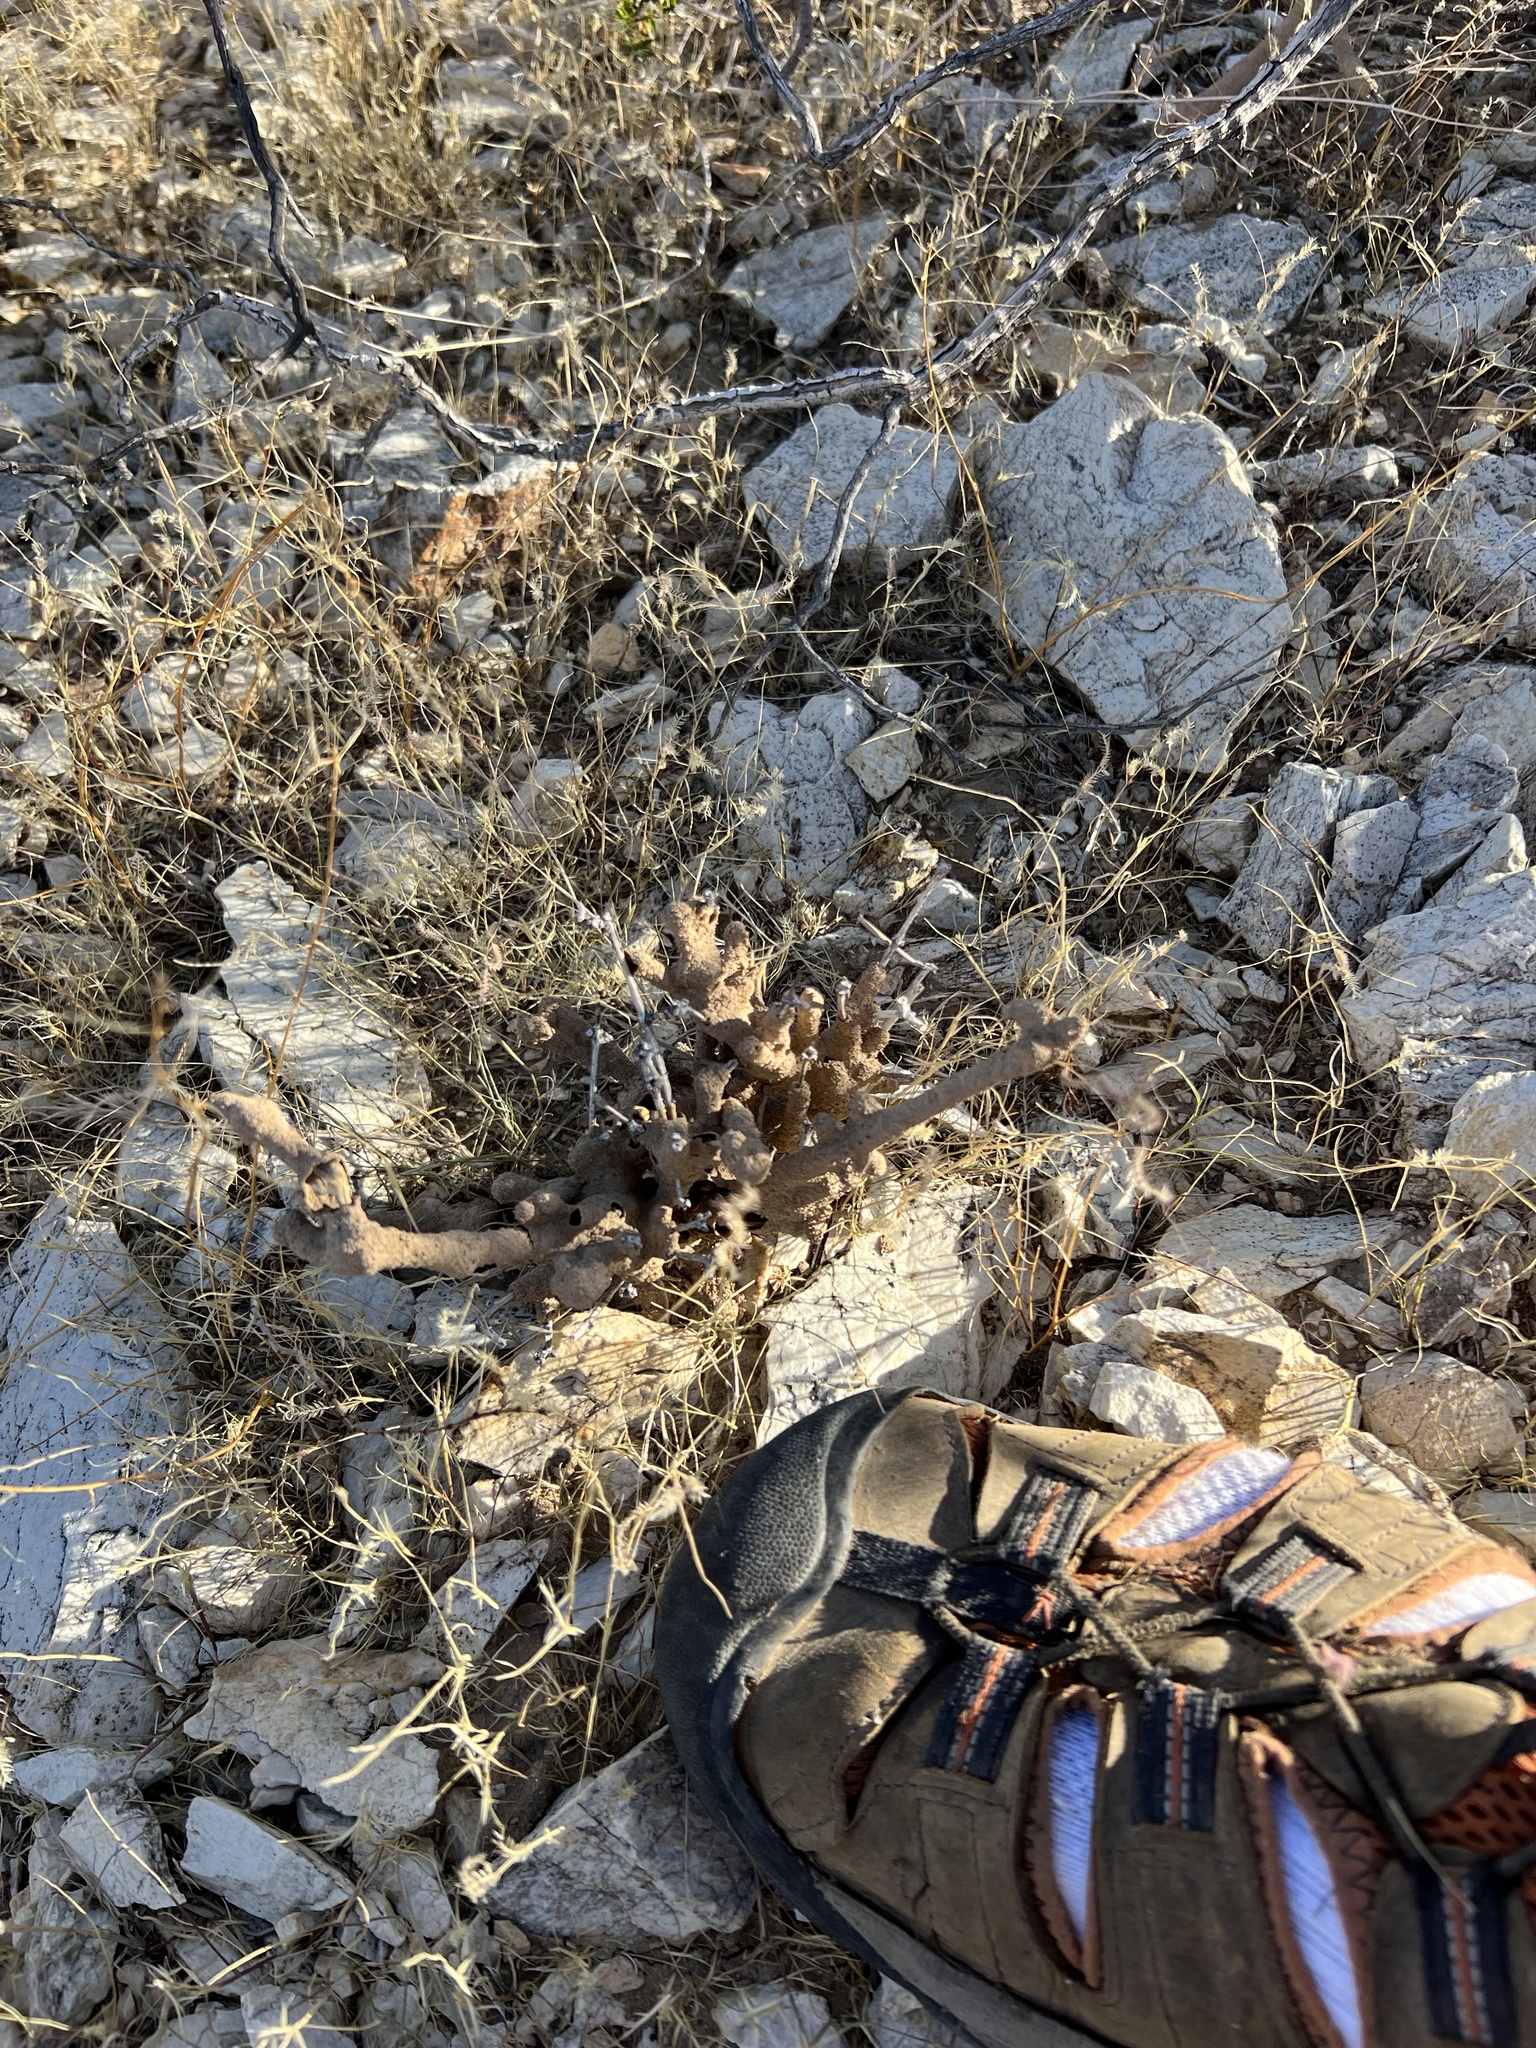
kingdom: Animalia
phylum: Arthropoda
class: Insecta
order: Blattodea
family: Termitidae
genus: Gnathamitermes
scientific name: Gnathamitermes
